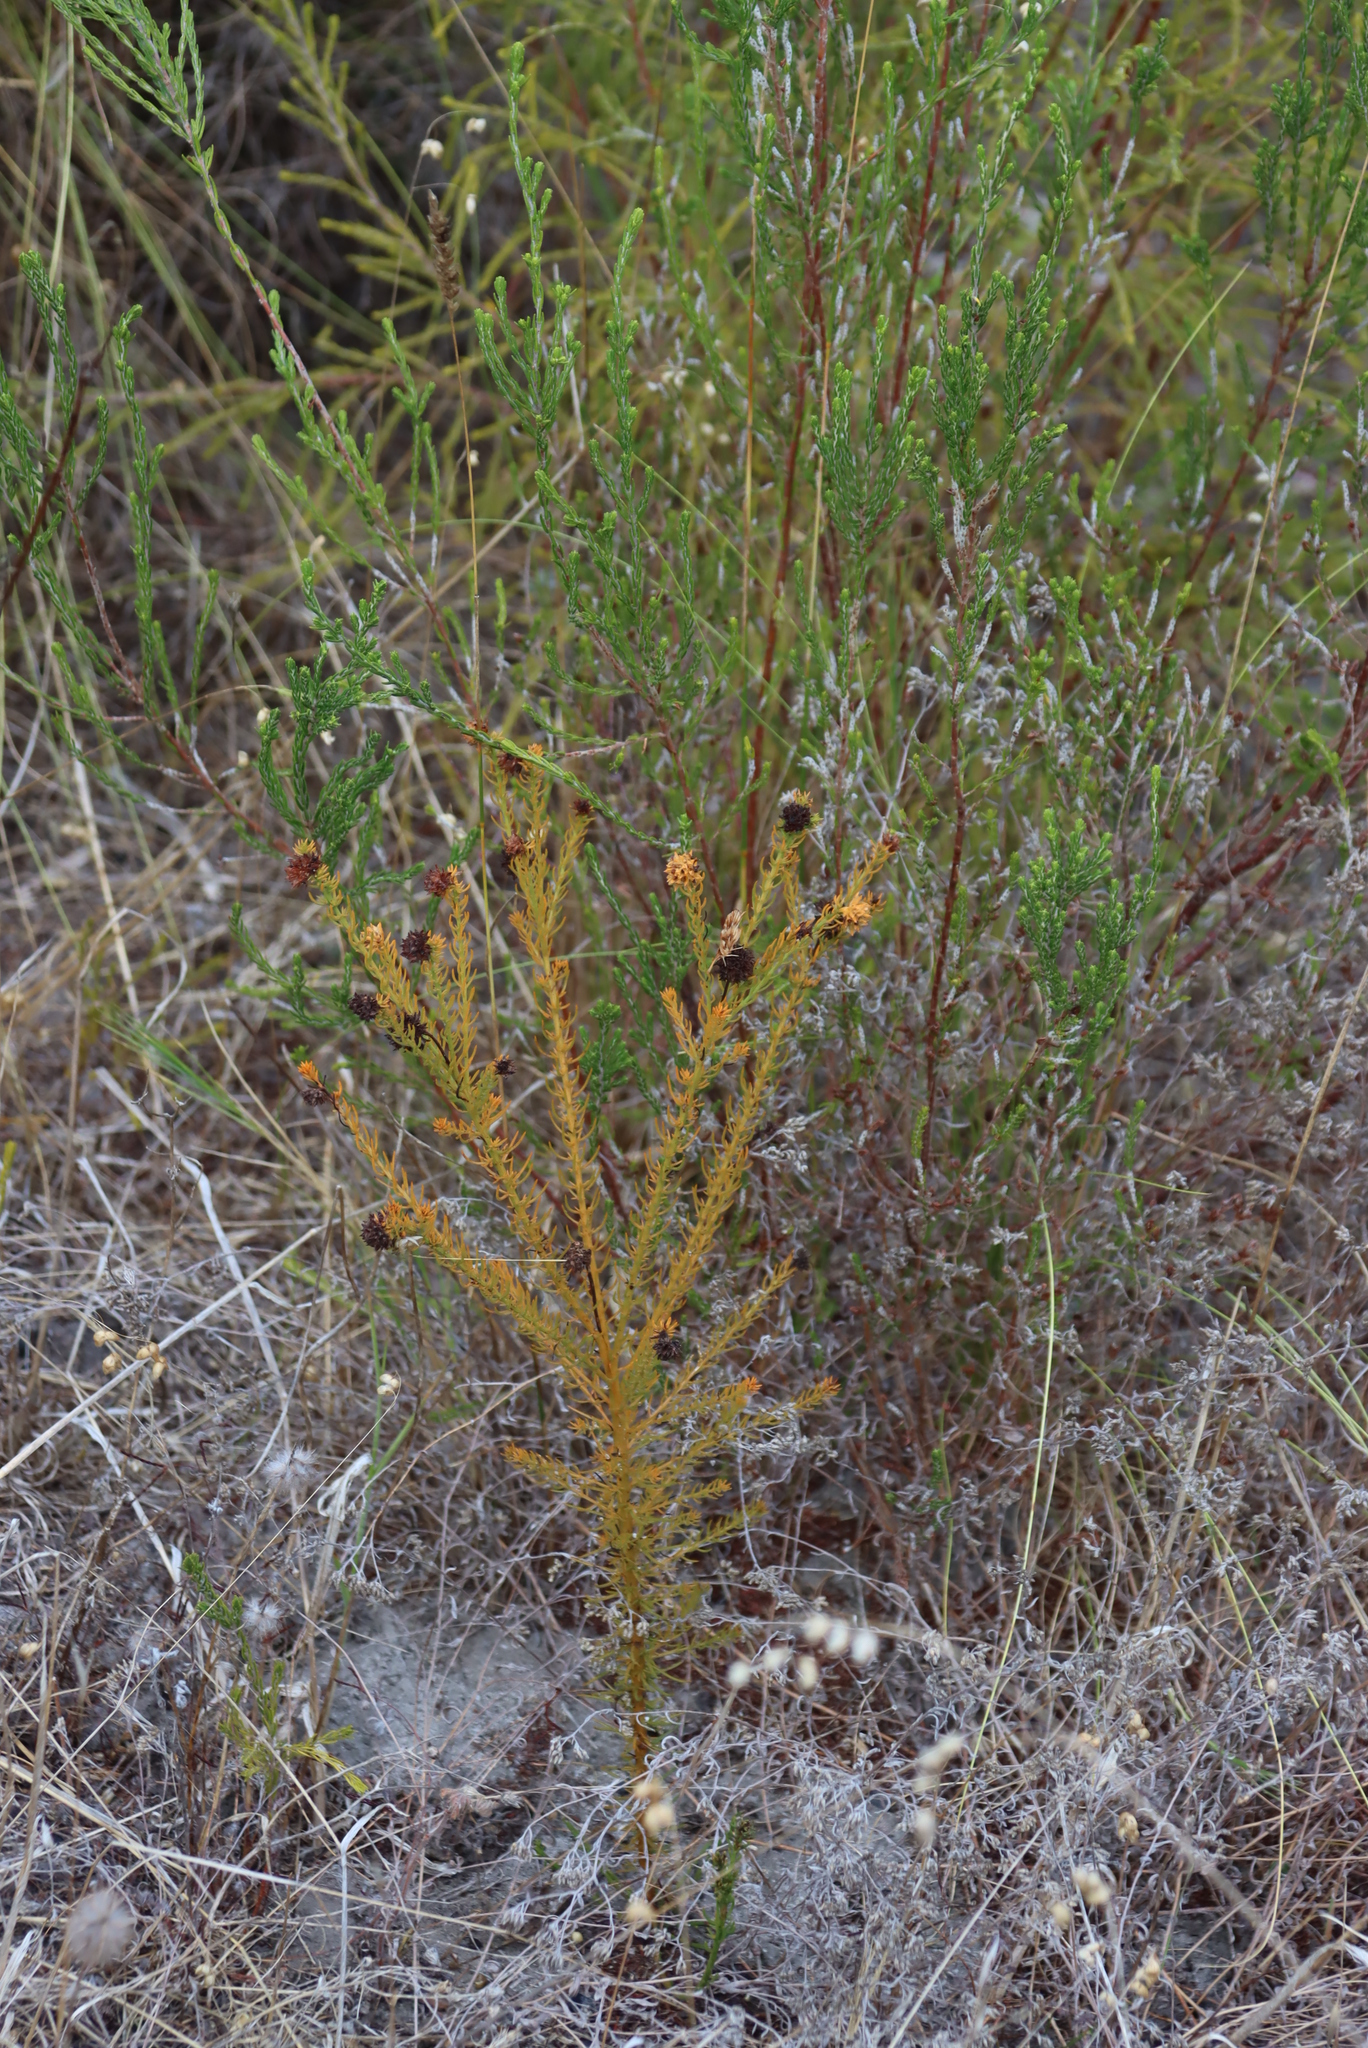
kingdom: Plantae
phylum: Tracheophyta
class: Magnoliopsida
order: Santalales
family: Thesiaceae
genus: Thesium
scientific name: Thesium scabrum
